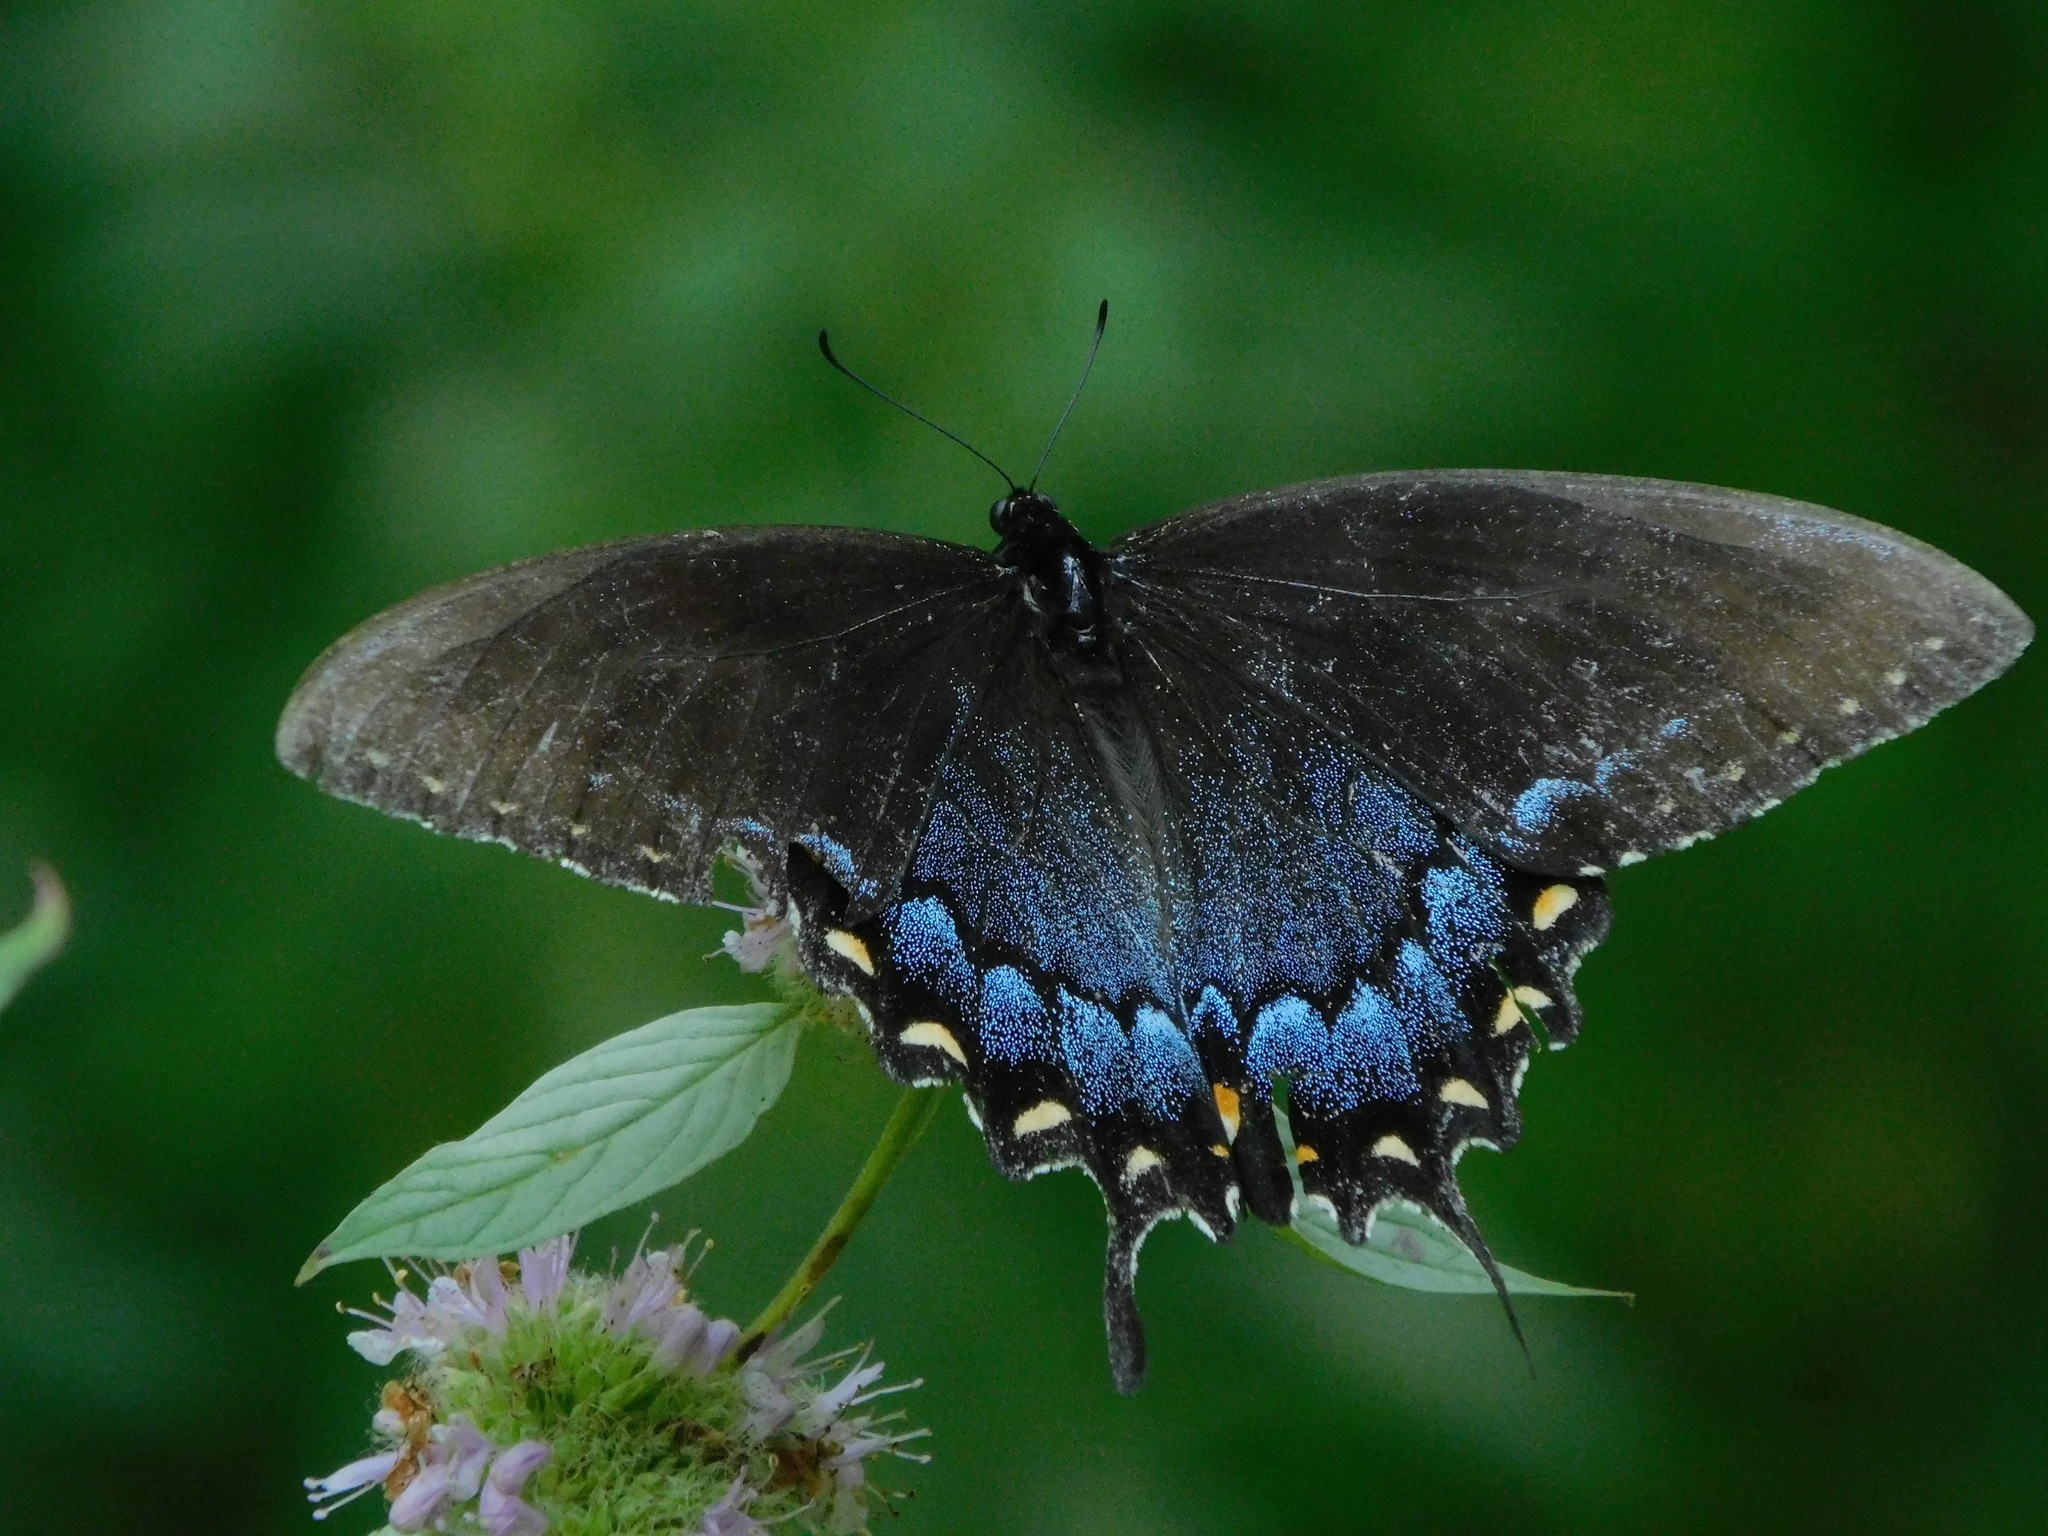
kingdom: Animalia
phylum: Arthropoda
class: Insecta
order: Lepidoptera
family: Papilionidae
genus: Papilio
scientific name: Papilio glaucus
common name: Tiger swallowtail
